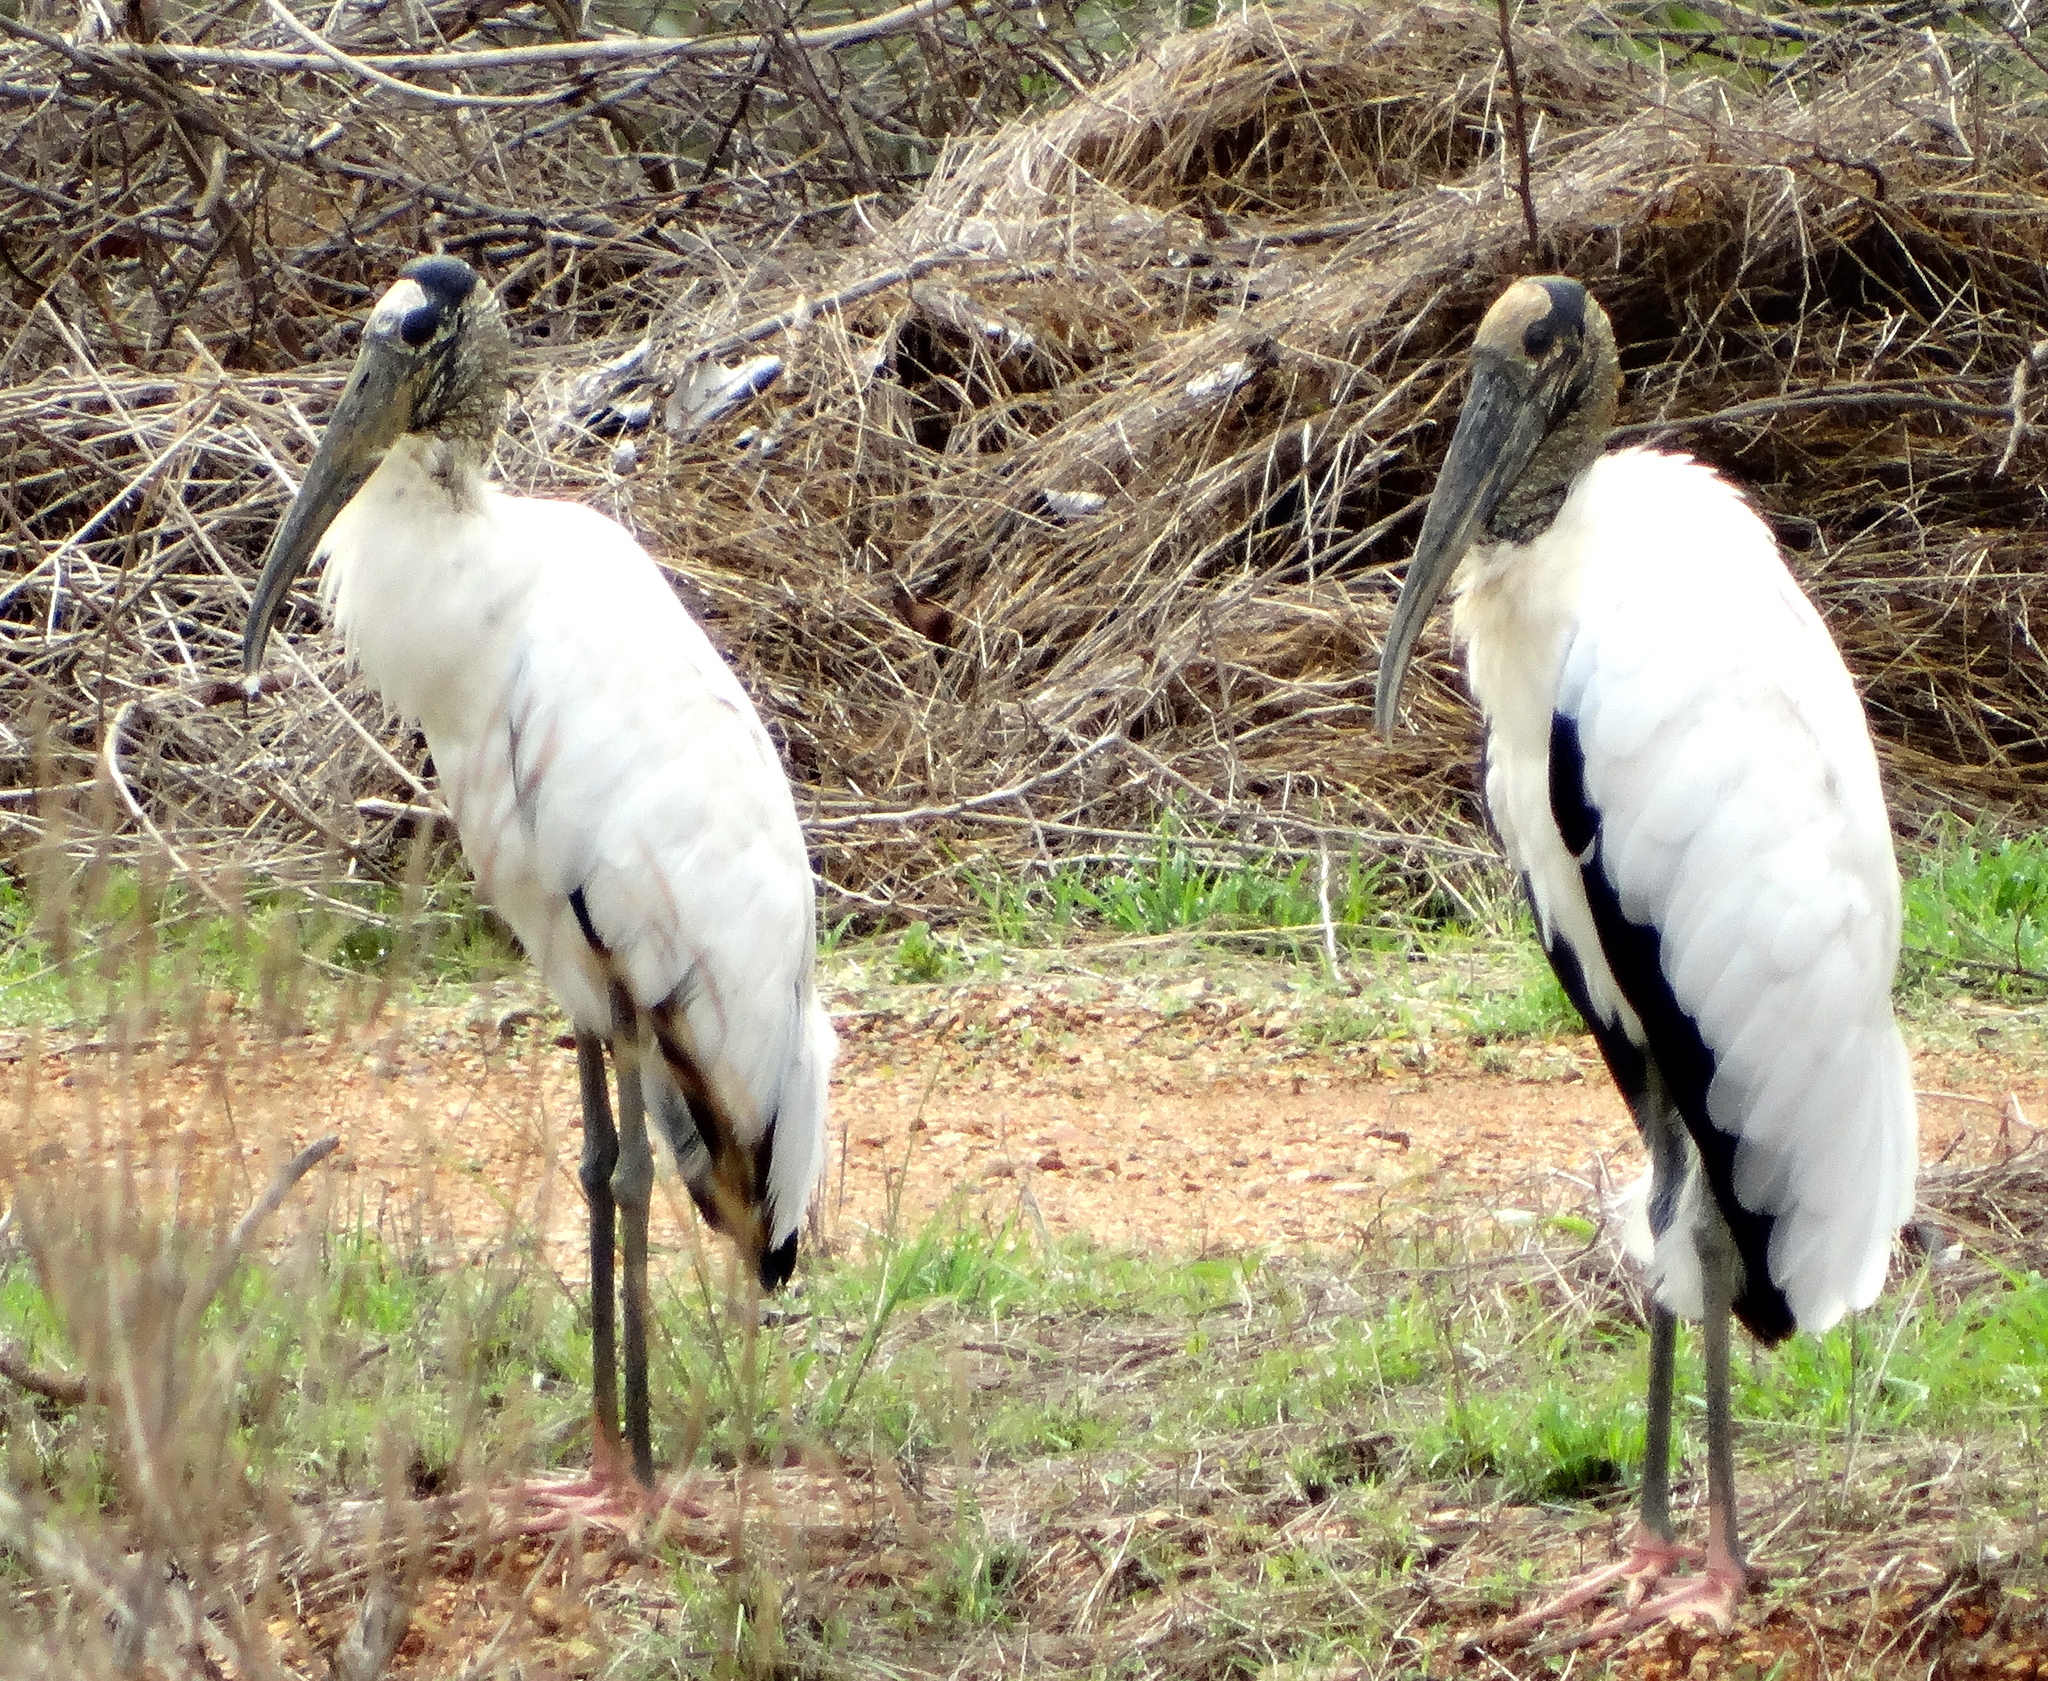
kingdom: Animalia
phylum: Chordata
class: Aves
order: Ciconiiformes
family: Ciconiidae
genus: Mycteria
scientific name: Mycteria americana
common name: Wood stork
